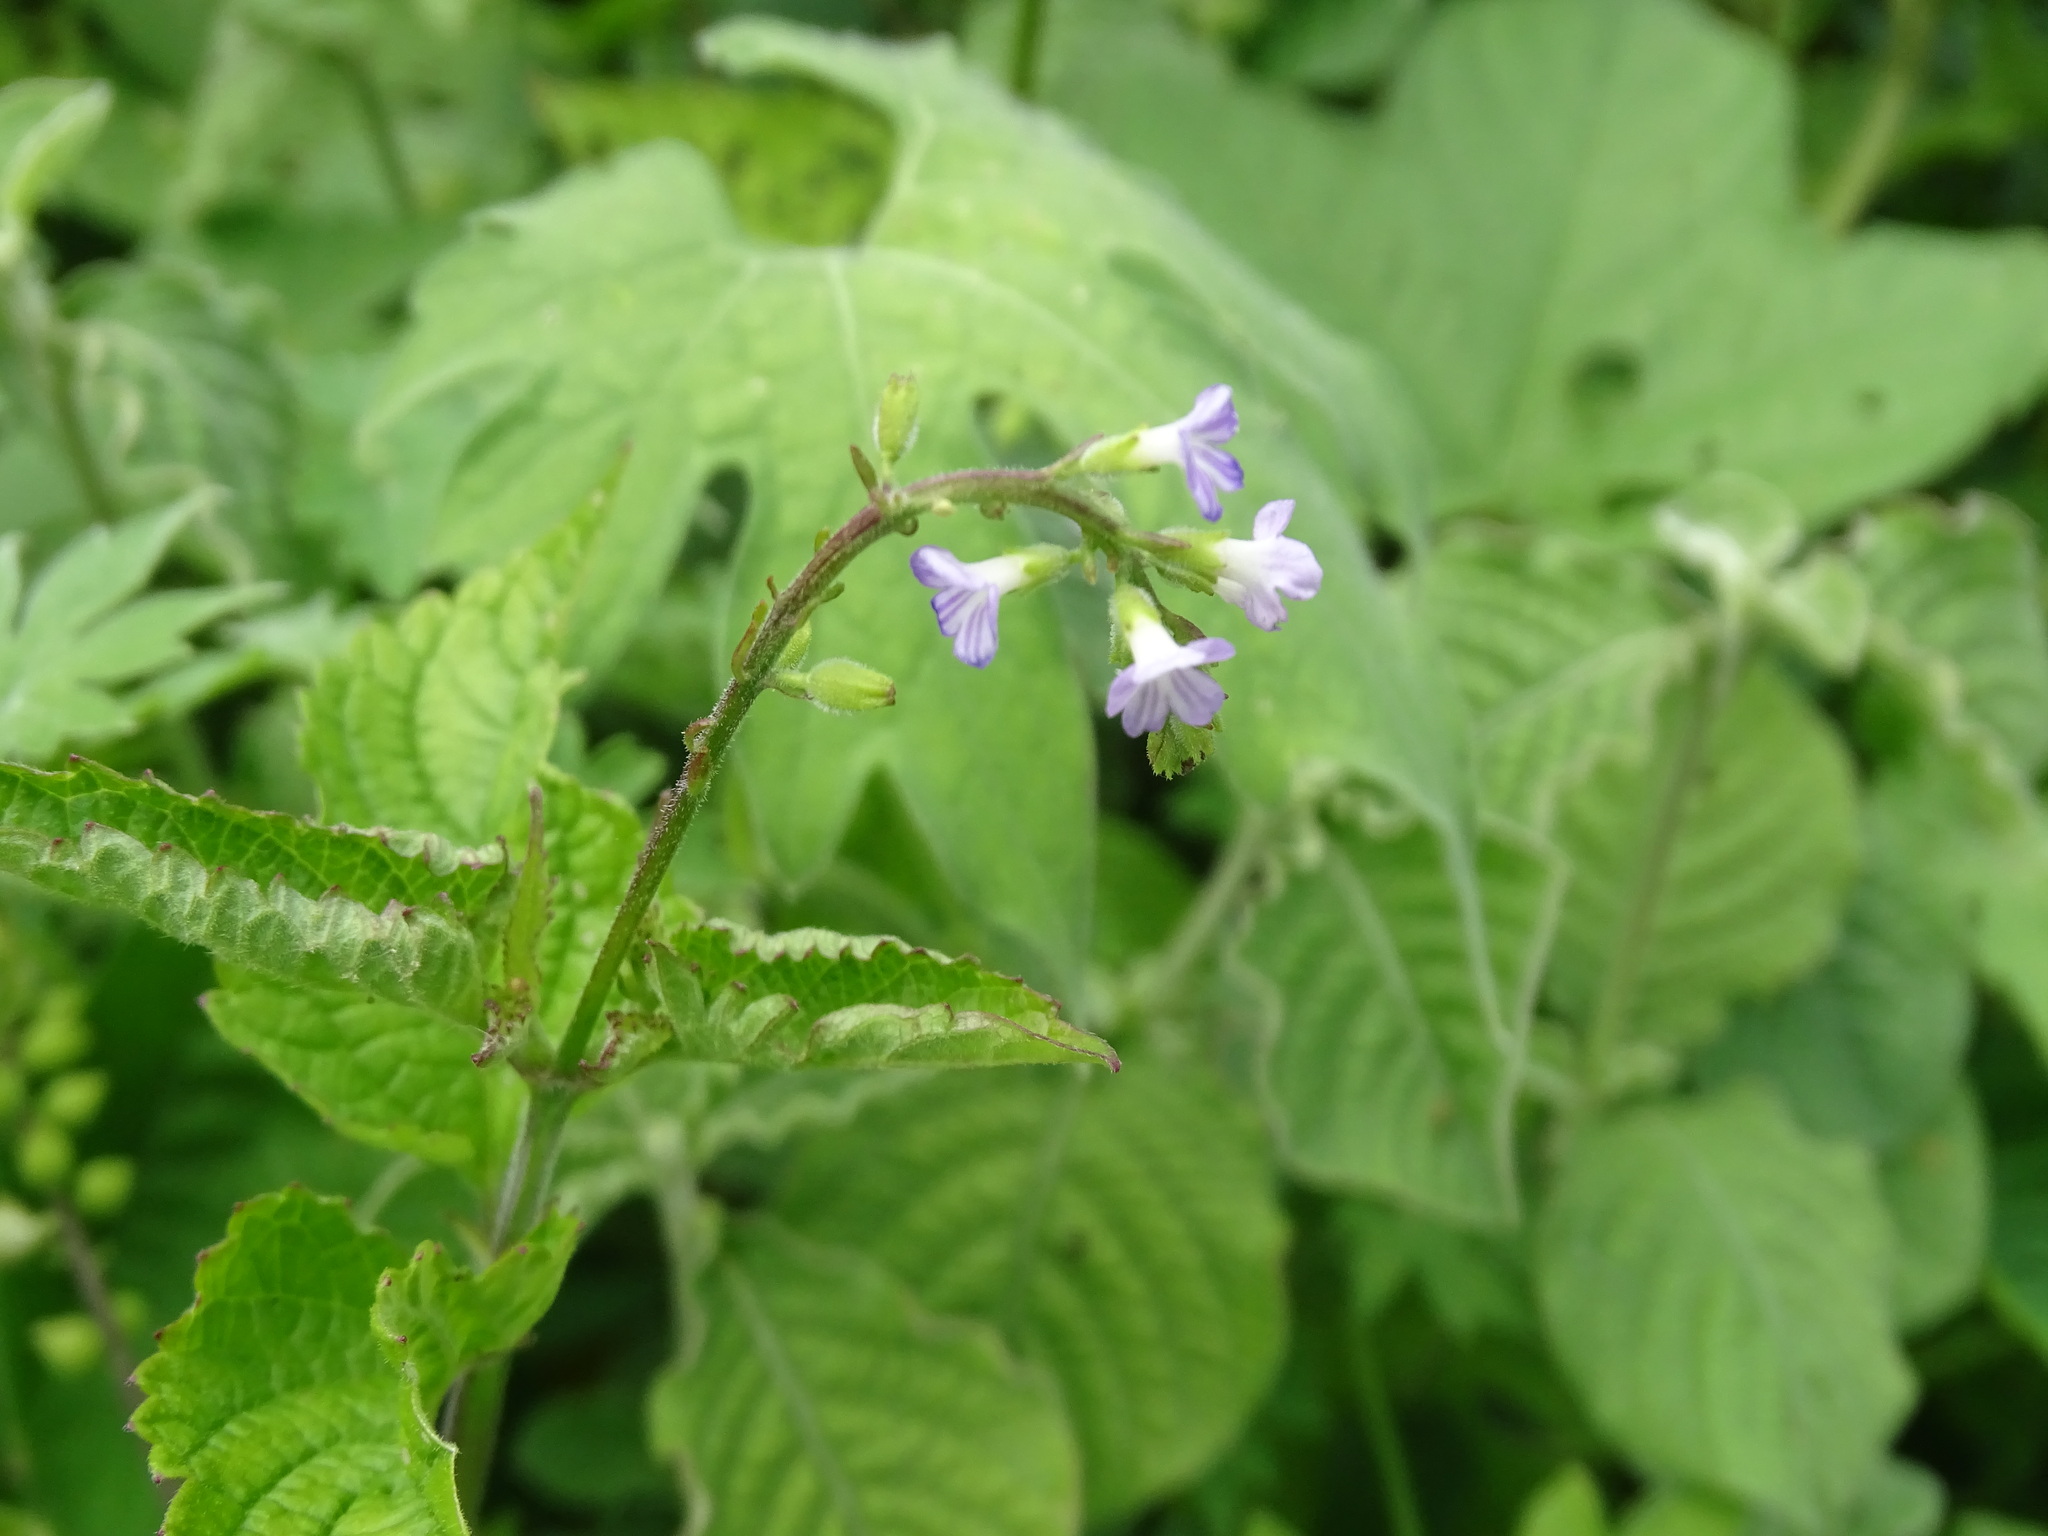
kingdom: Plantae
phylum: Tracheophyta
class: Magnoliopsida
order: Lamiales
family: Verbenaceae
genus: Priva
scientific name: Priva lappulacea
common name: Fasten-'pon-coat
